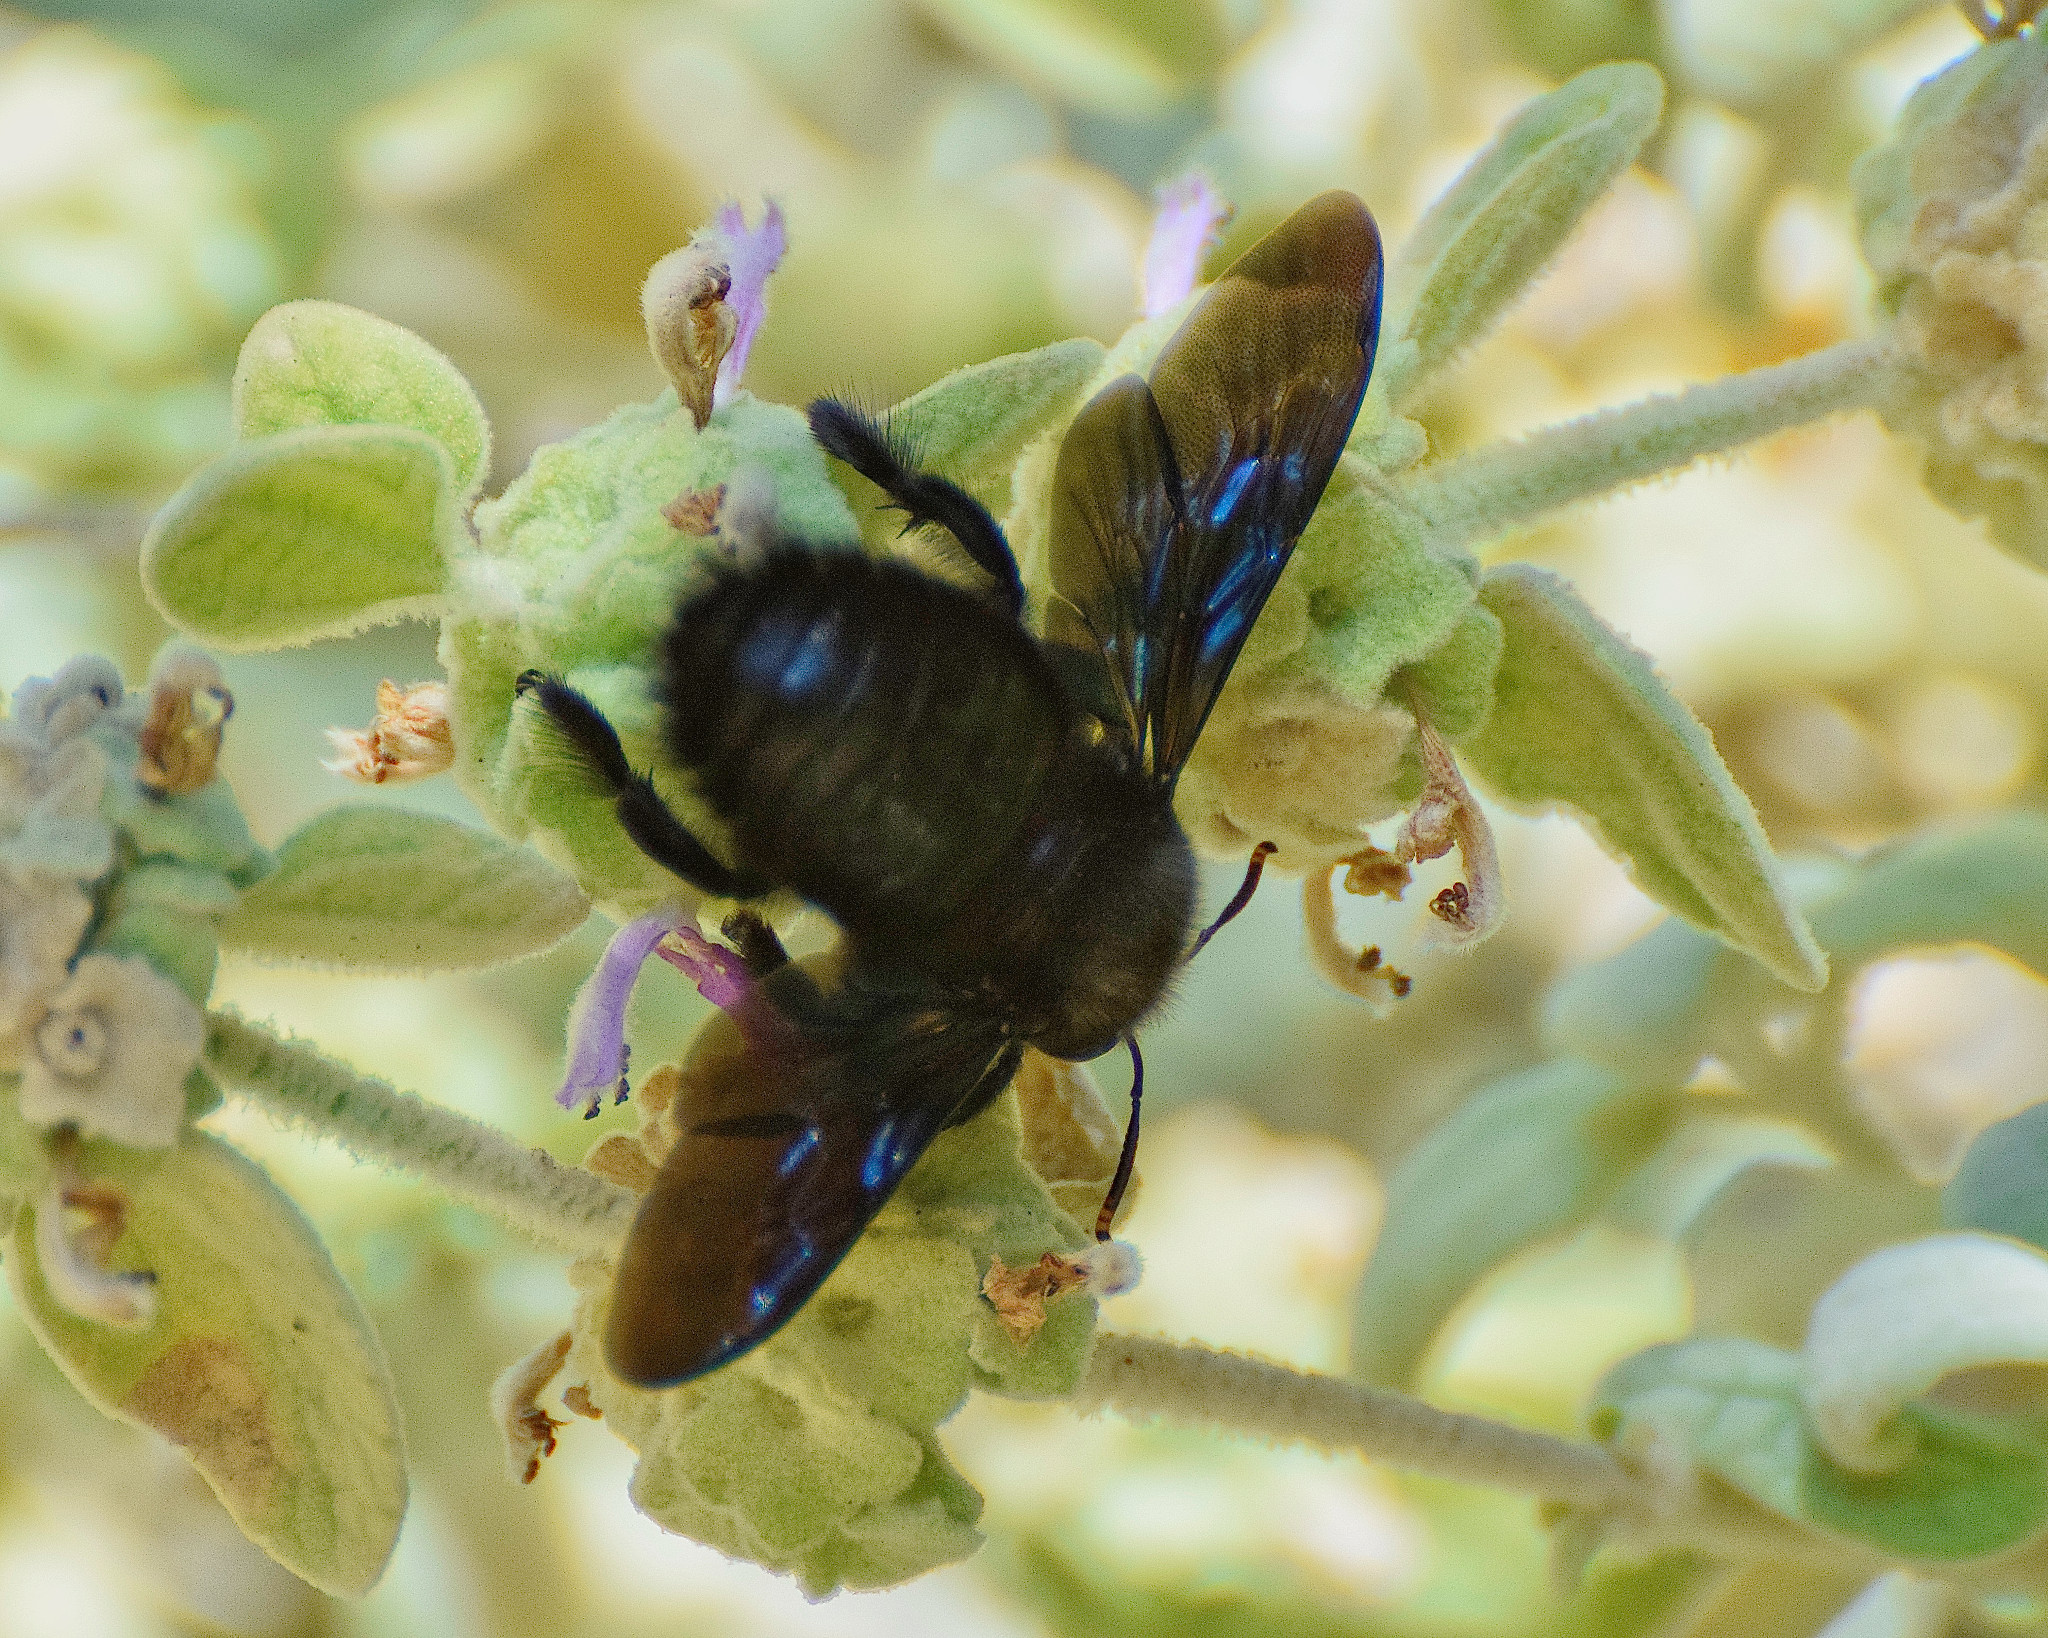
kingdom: Animalia
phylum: Arthropoda
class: Insecta
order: Hymenoptera
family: Apidae
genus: Xylocopa
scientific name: Xylocopa violacea
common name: Violet carpenter bee
